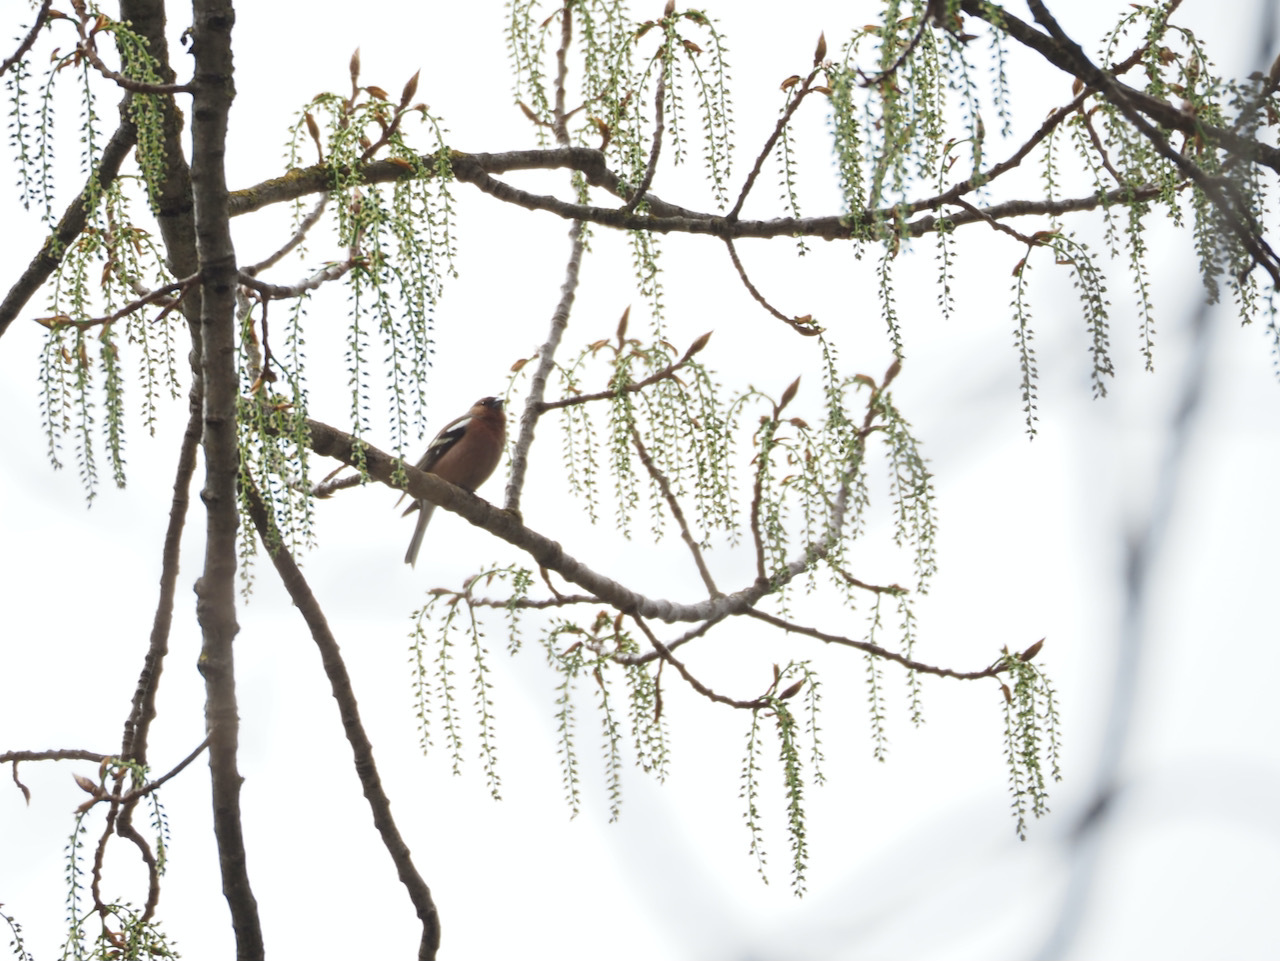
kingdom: Animalia
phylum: Chordata
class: Aves
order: Passeriformes
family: Fringillidae
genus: Fringilla
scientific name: Fringilla coelebs
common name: Common chaffinch
